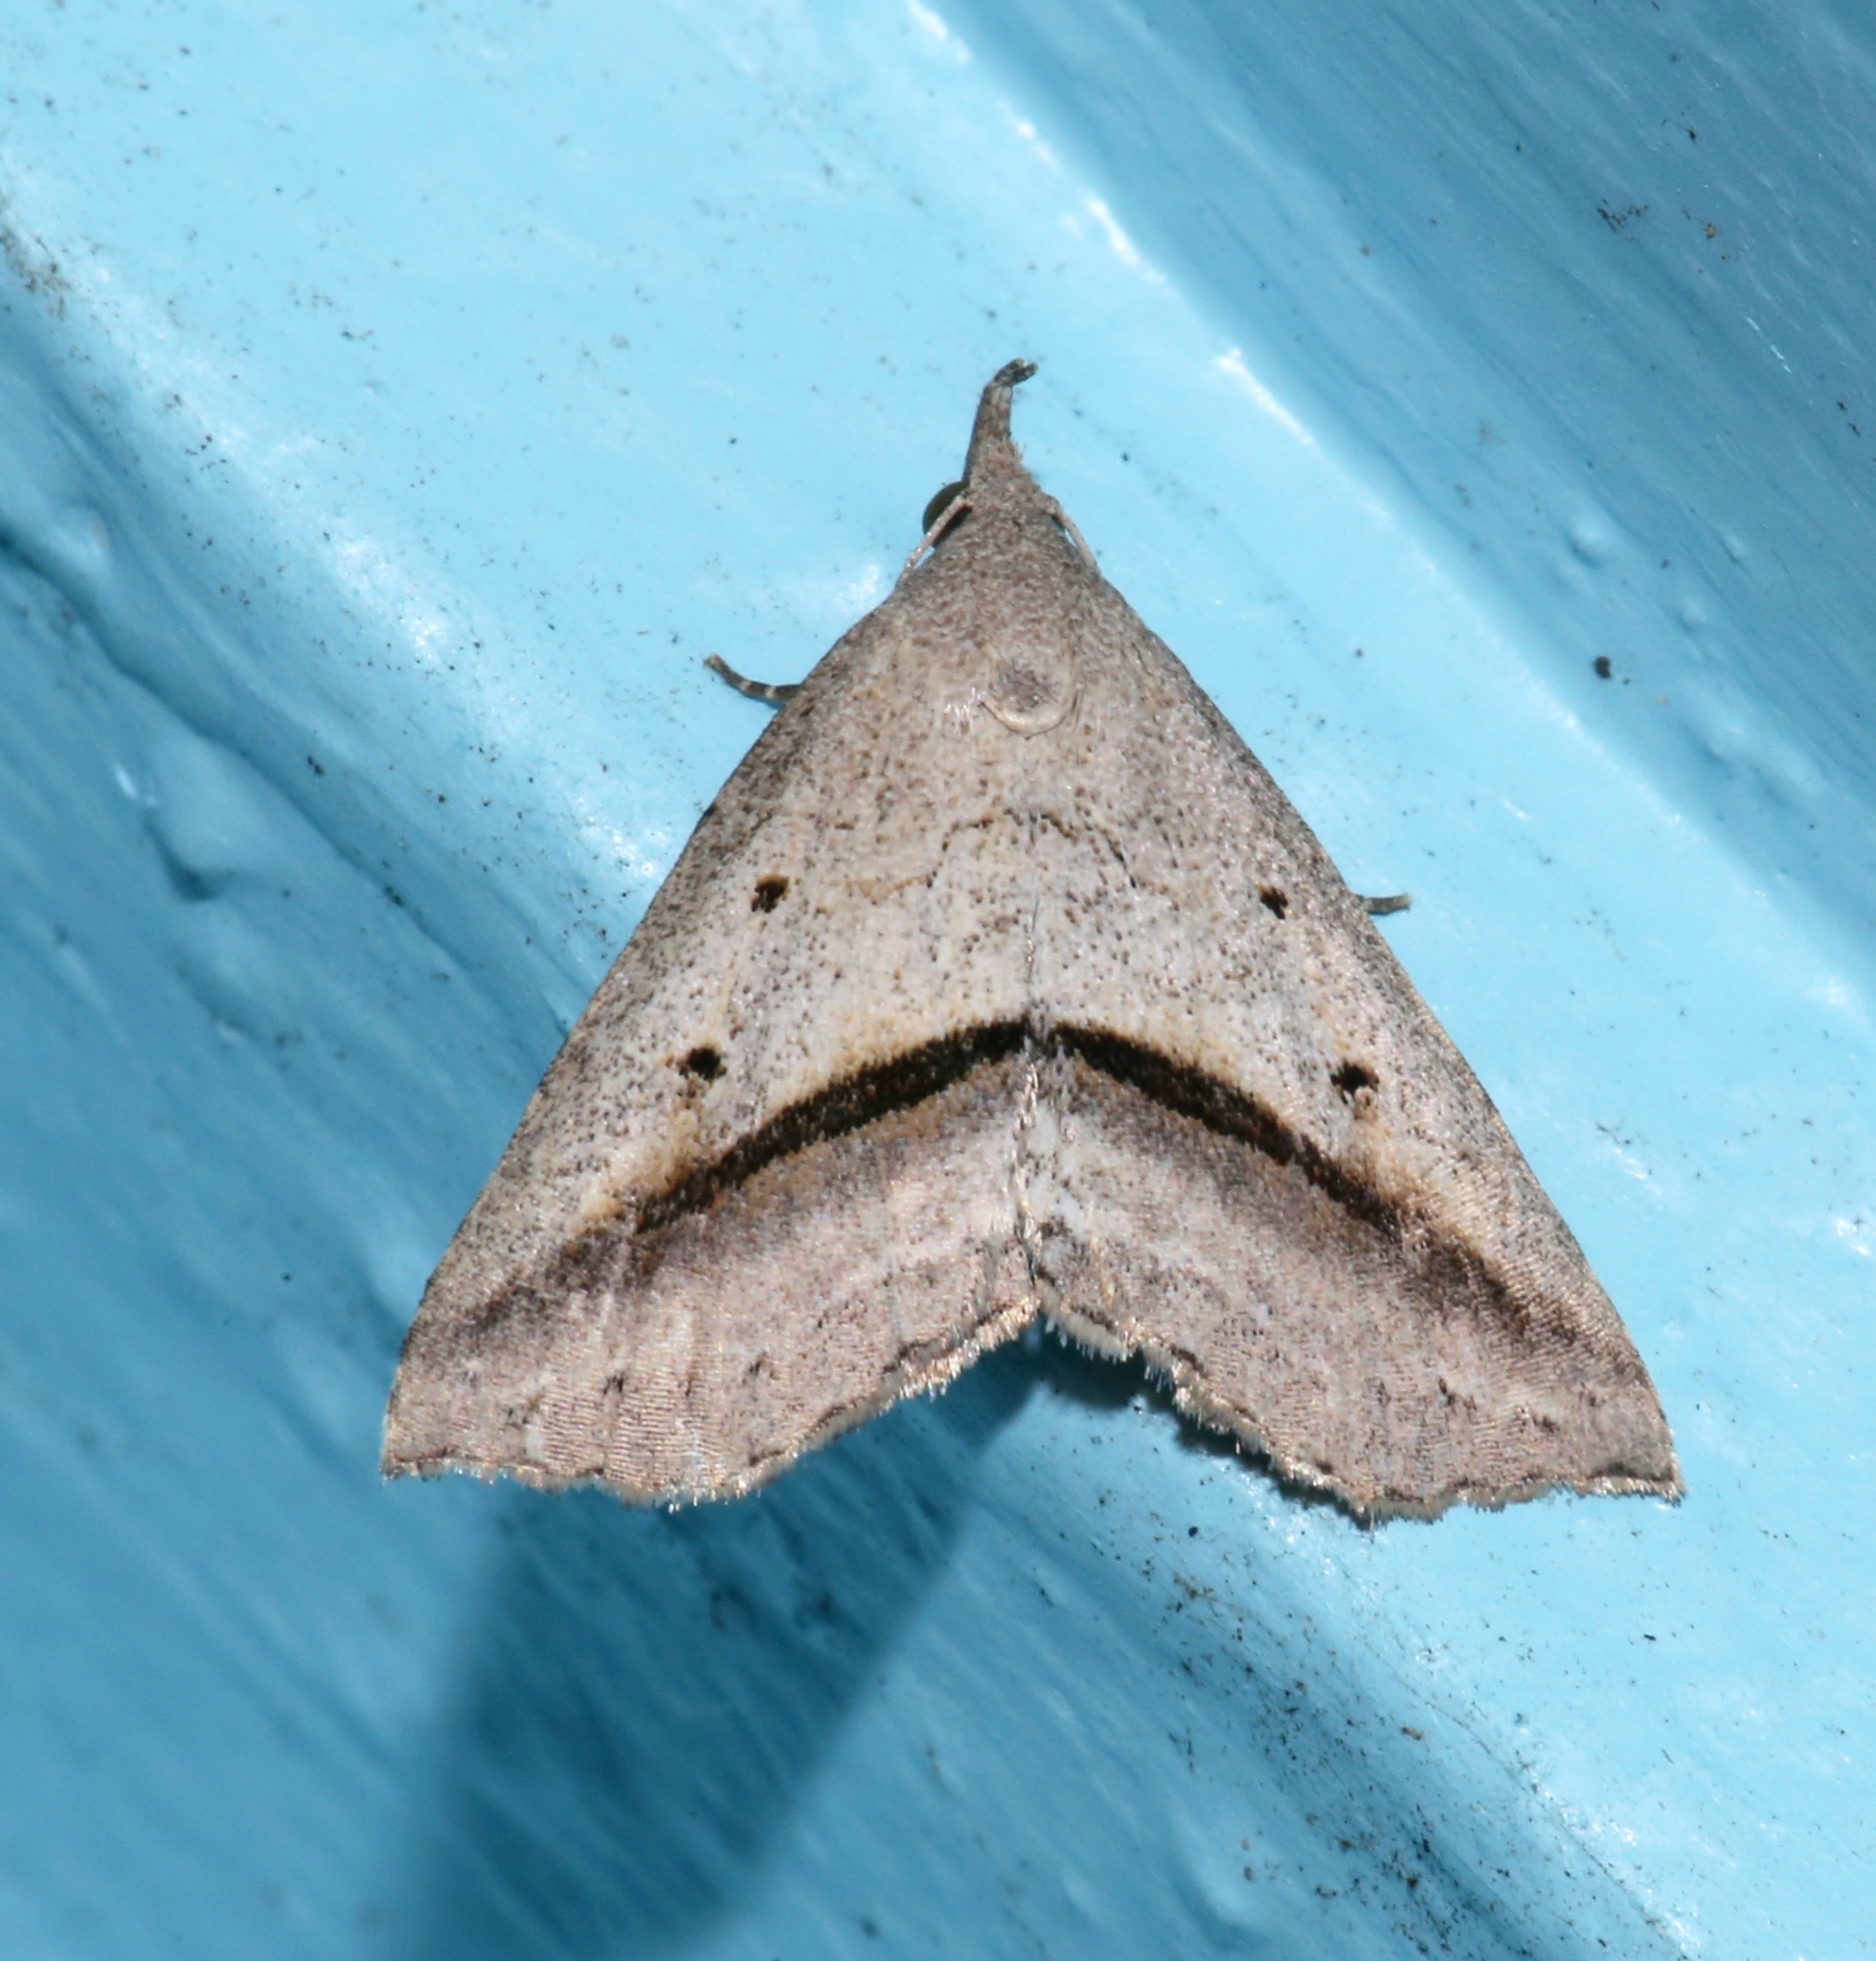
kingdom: Animalia
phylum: Arthropoda
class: Insecta
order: Lepidoptera
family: Erebidae
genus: Spargaloma
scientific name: Spargaloma perditalis
